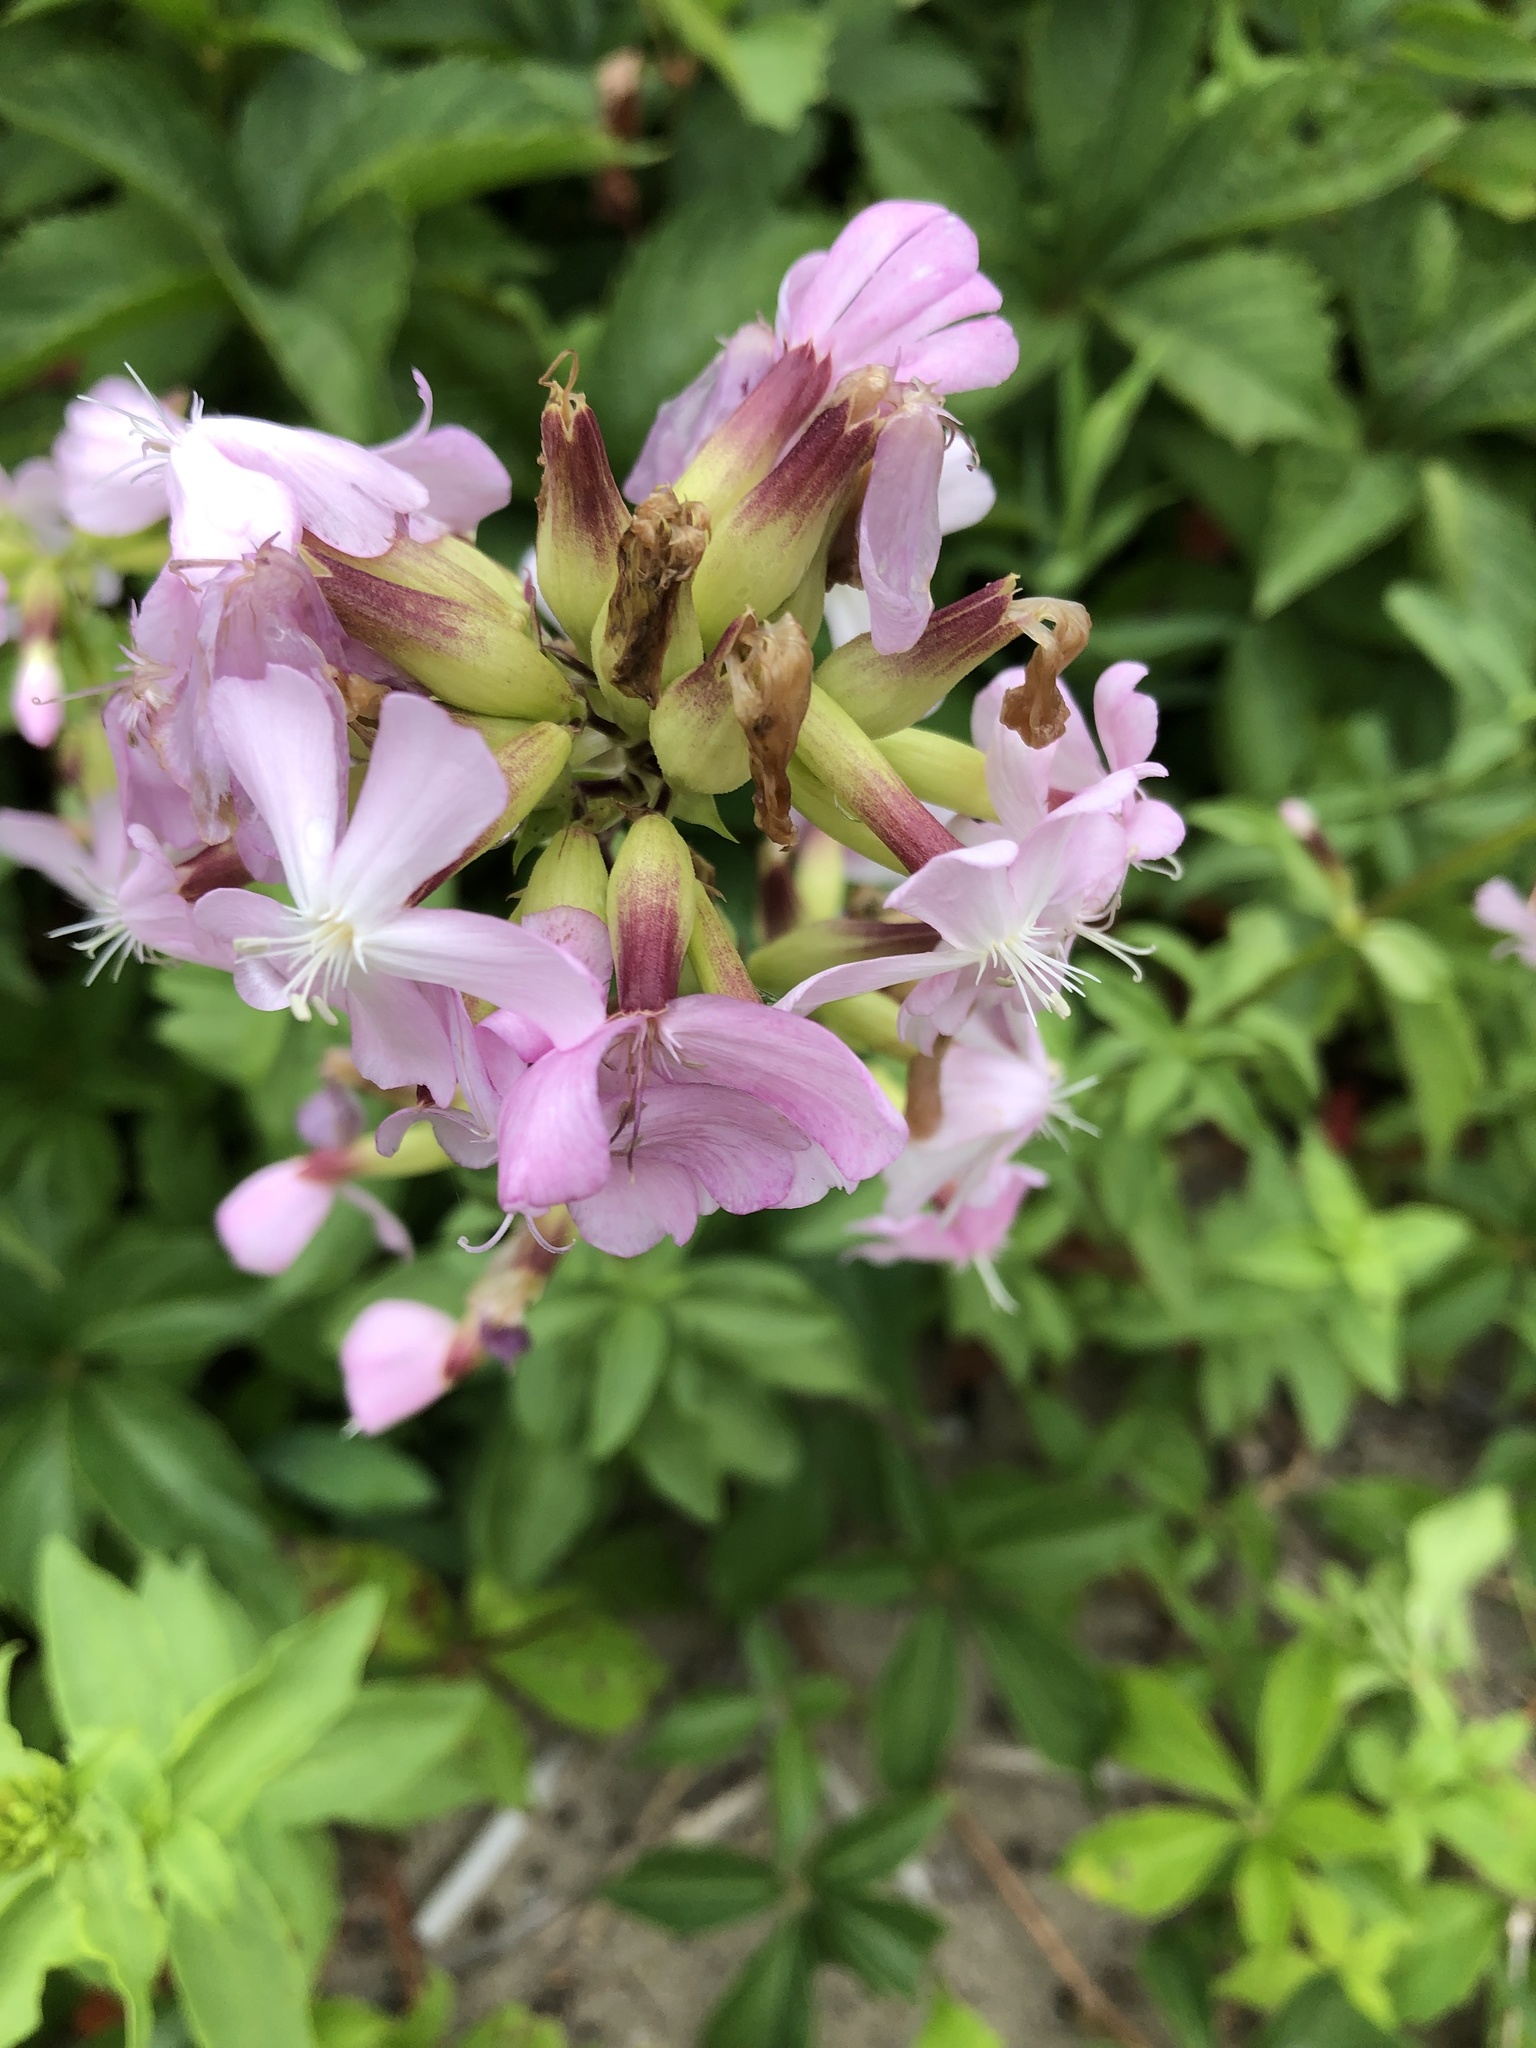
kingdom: Plantae
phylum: Tracheophyta
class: Magnoliopsida
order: Caryophyllales
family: Caryophyllaceae
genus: Saponaria
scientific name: Saponaria officinalis
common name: Soapwort
